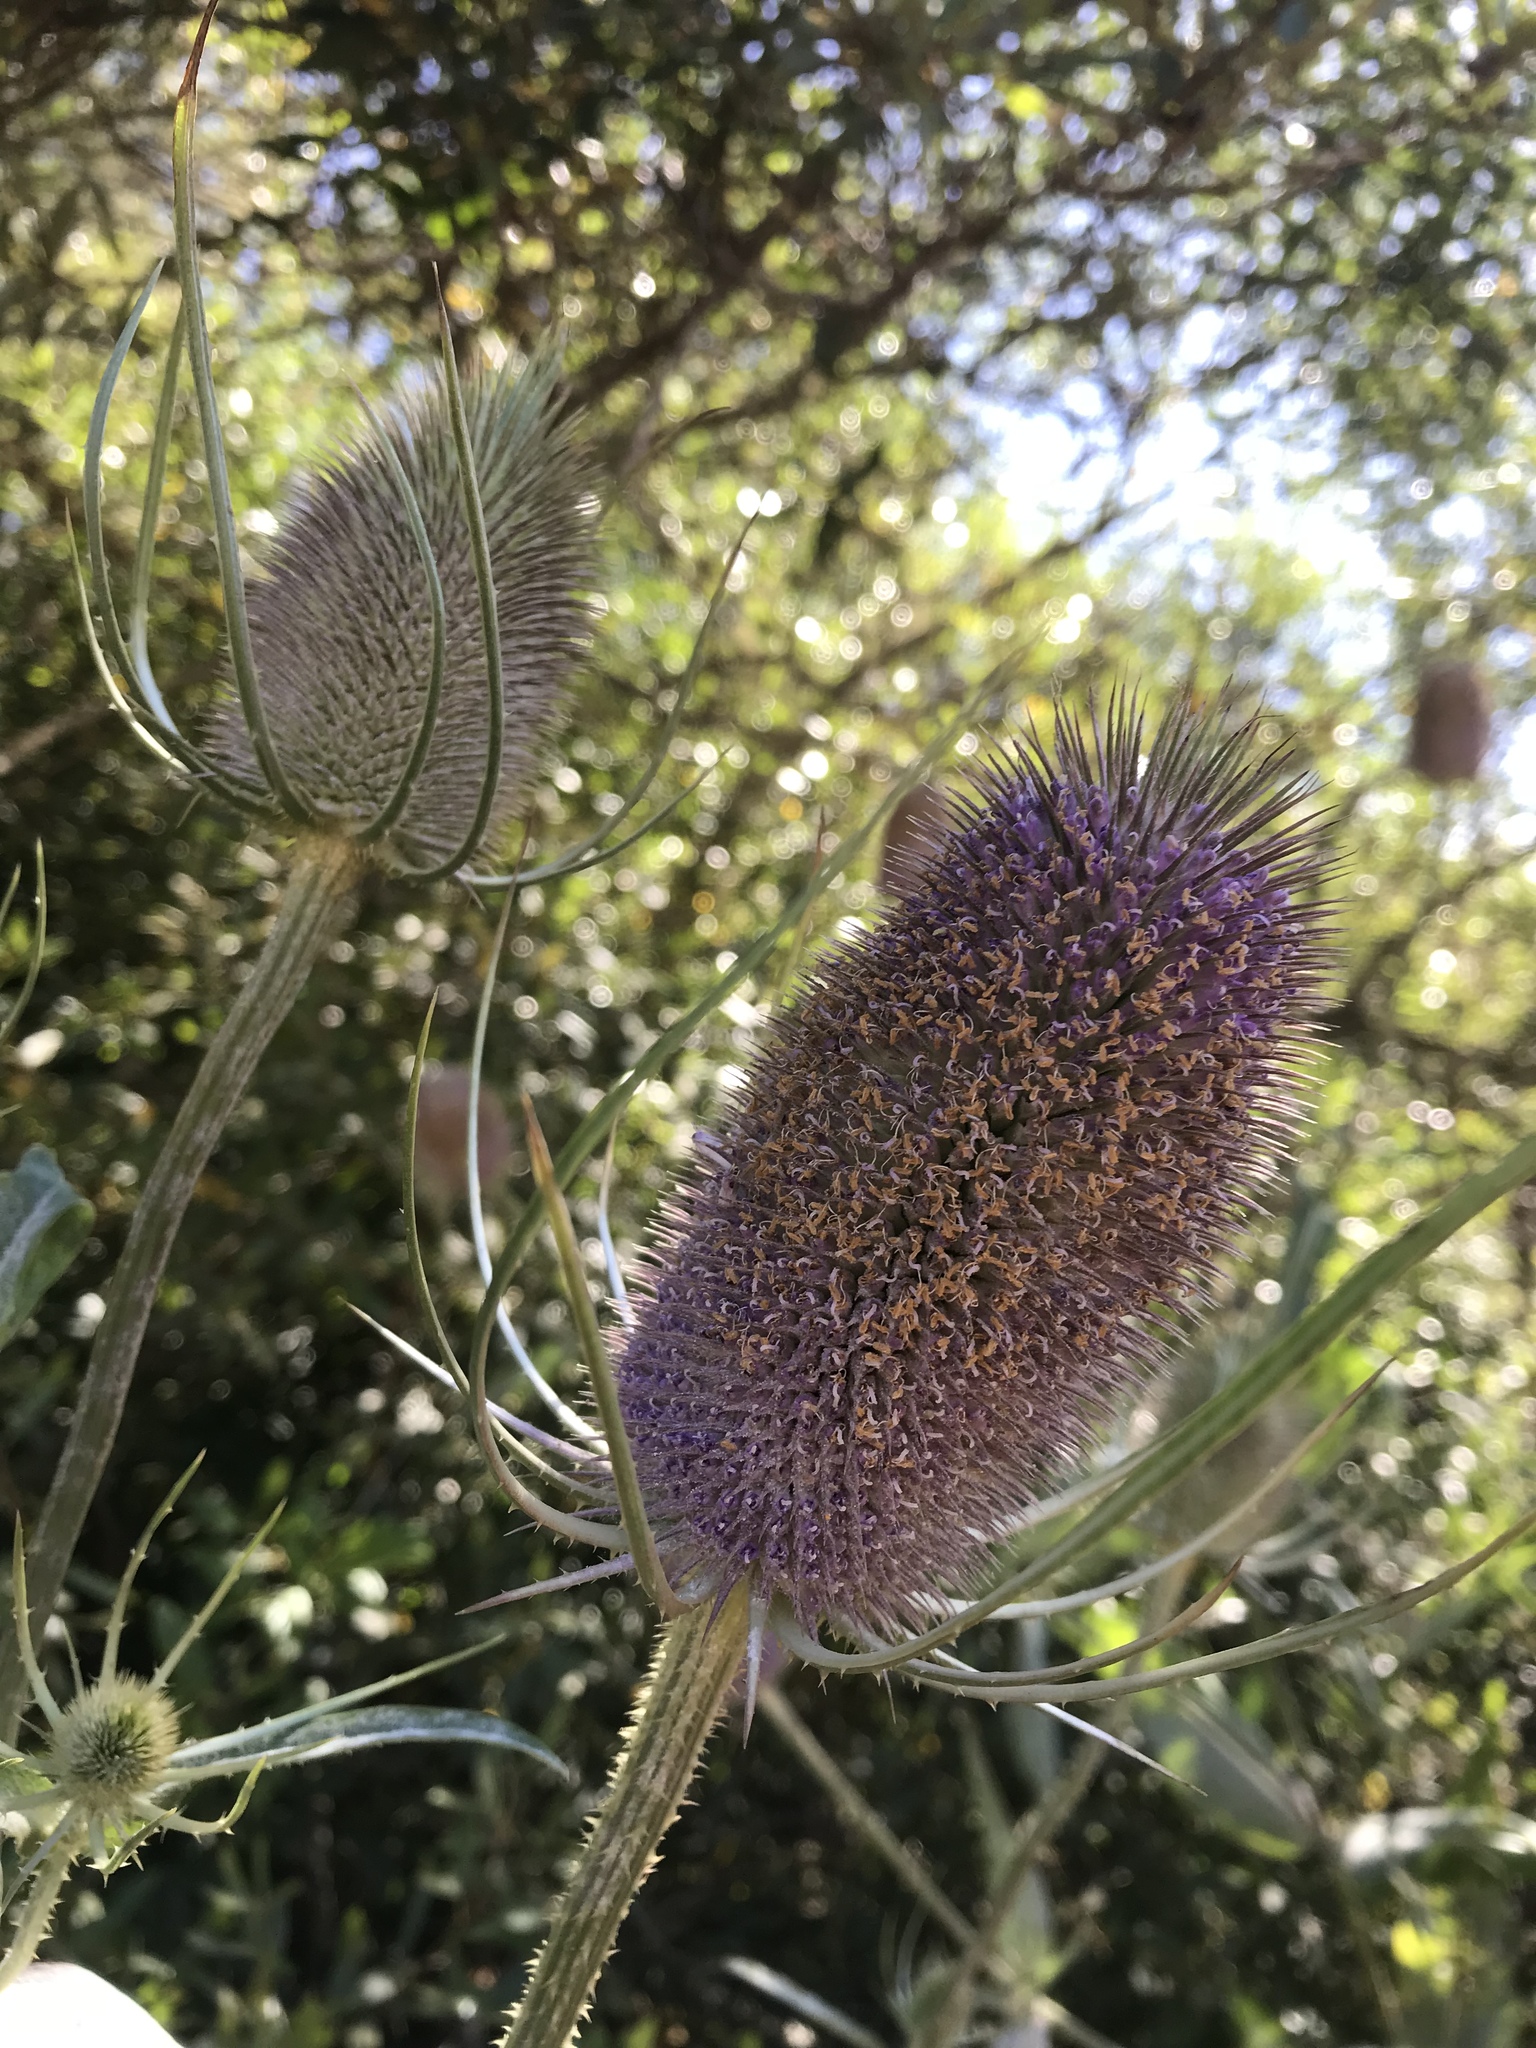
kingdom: Plantae
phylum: Tracheophyta
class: Magnoliopsida
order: Dipsacales
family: Caprifoliaceae
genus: Dipsacus
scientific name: Dipsacus fullonum
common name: Teasel
